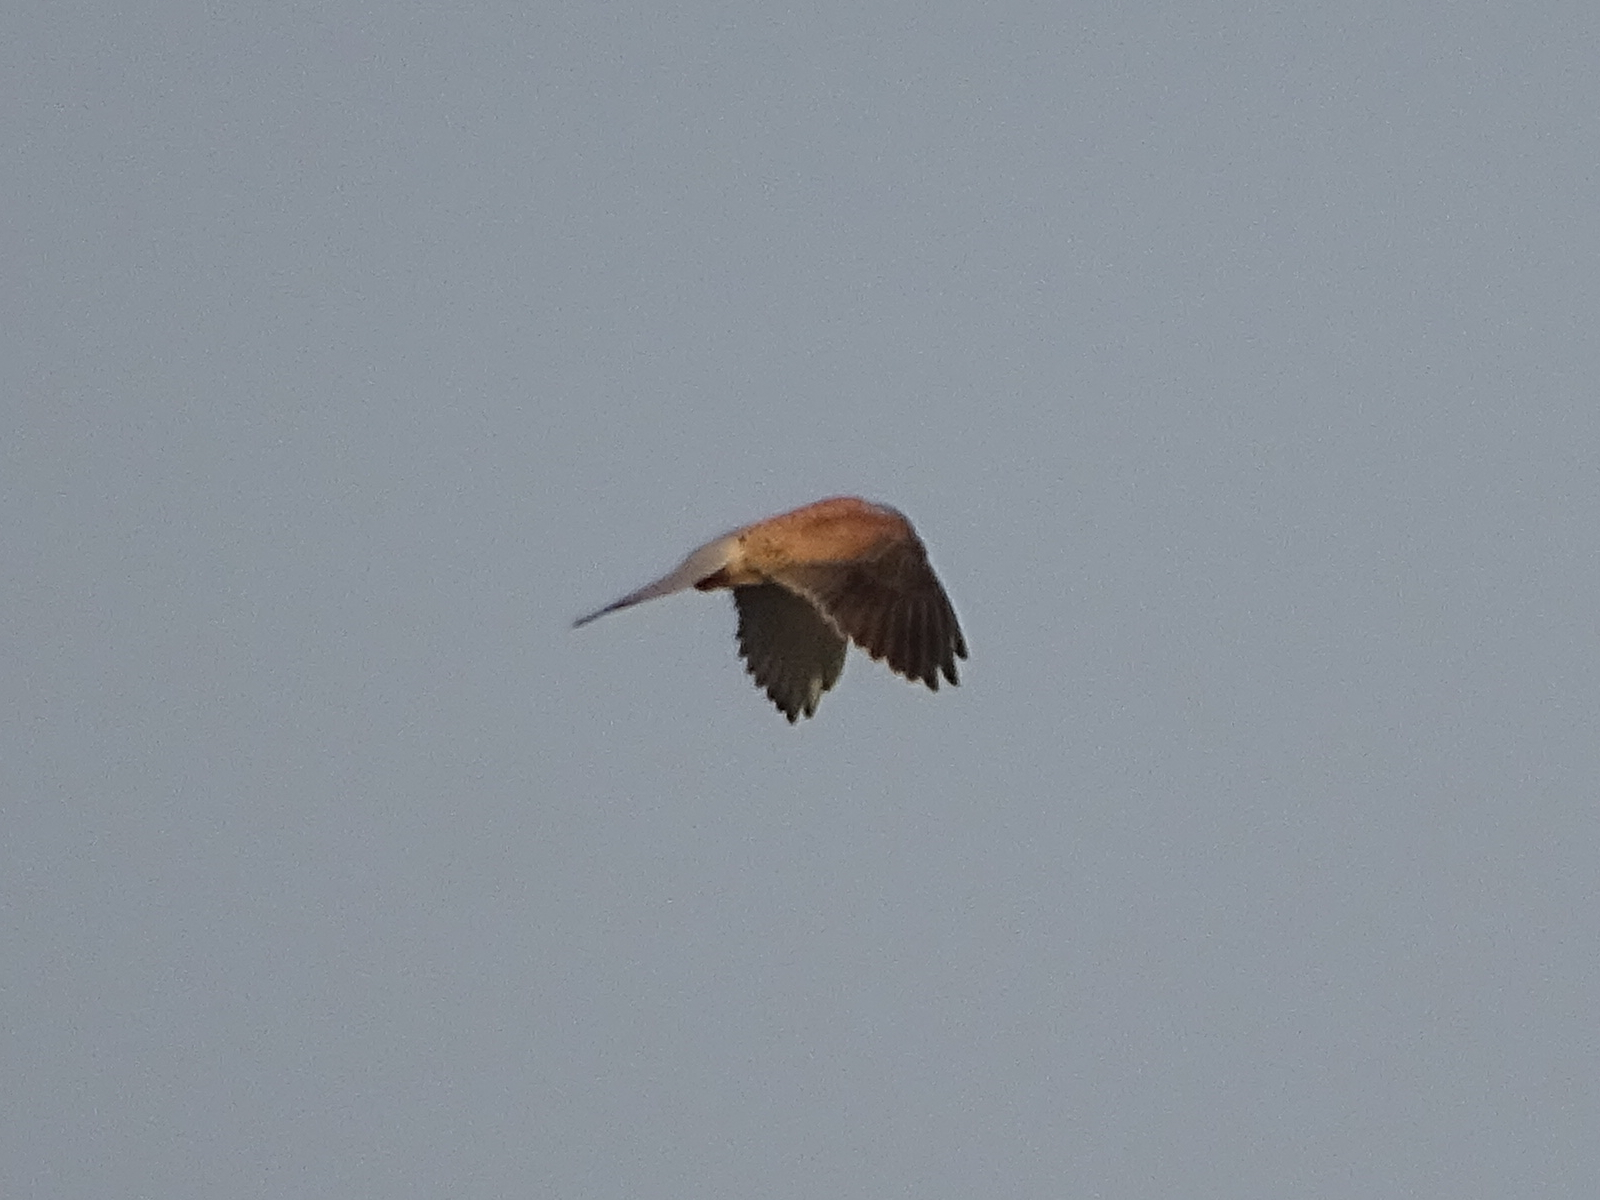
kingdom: Animalia
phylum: Chordata
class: Aves
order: Falconiformes
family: Falconidae
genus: Falco
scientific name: Falco tinnunculus
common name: Common kestrel
